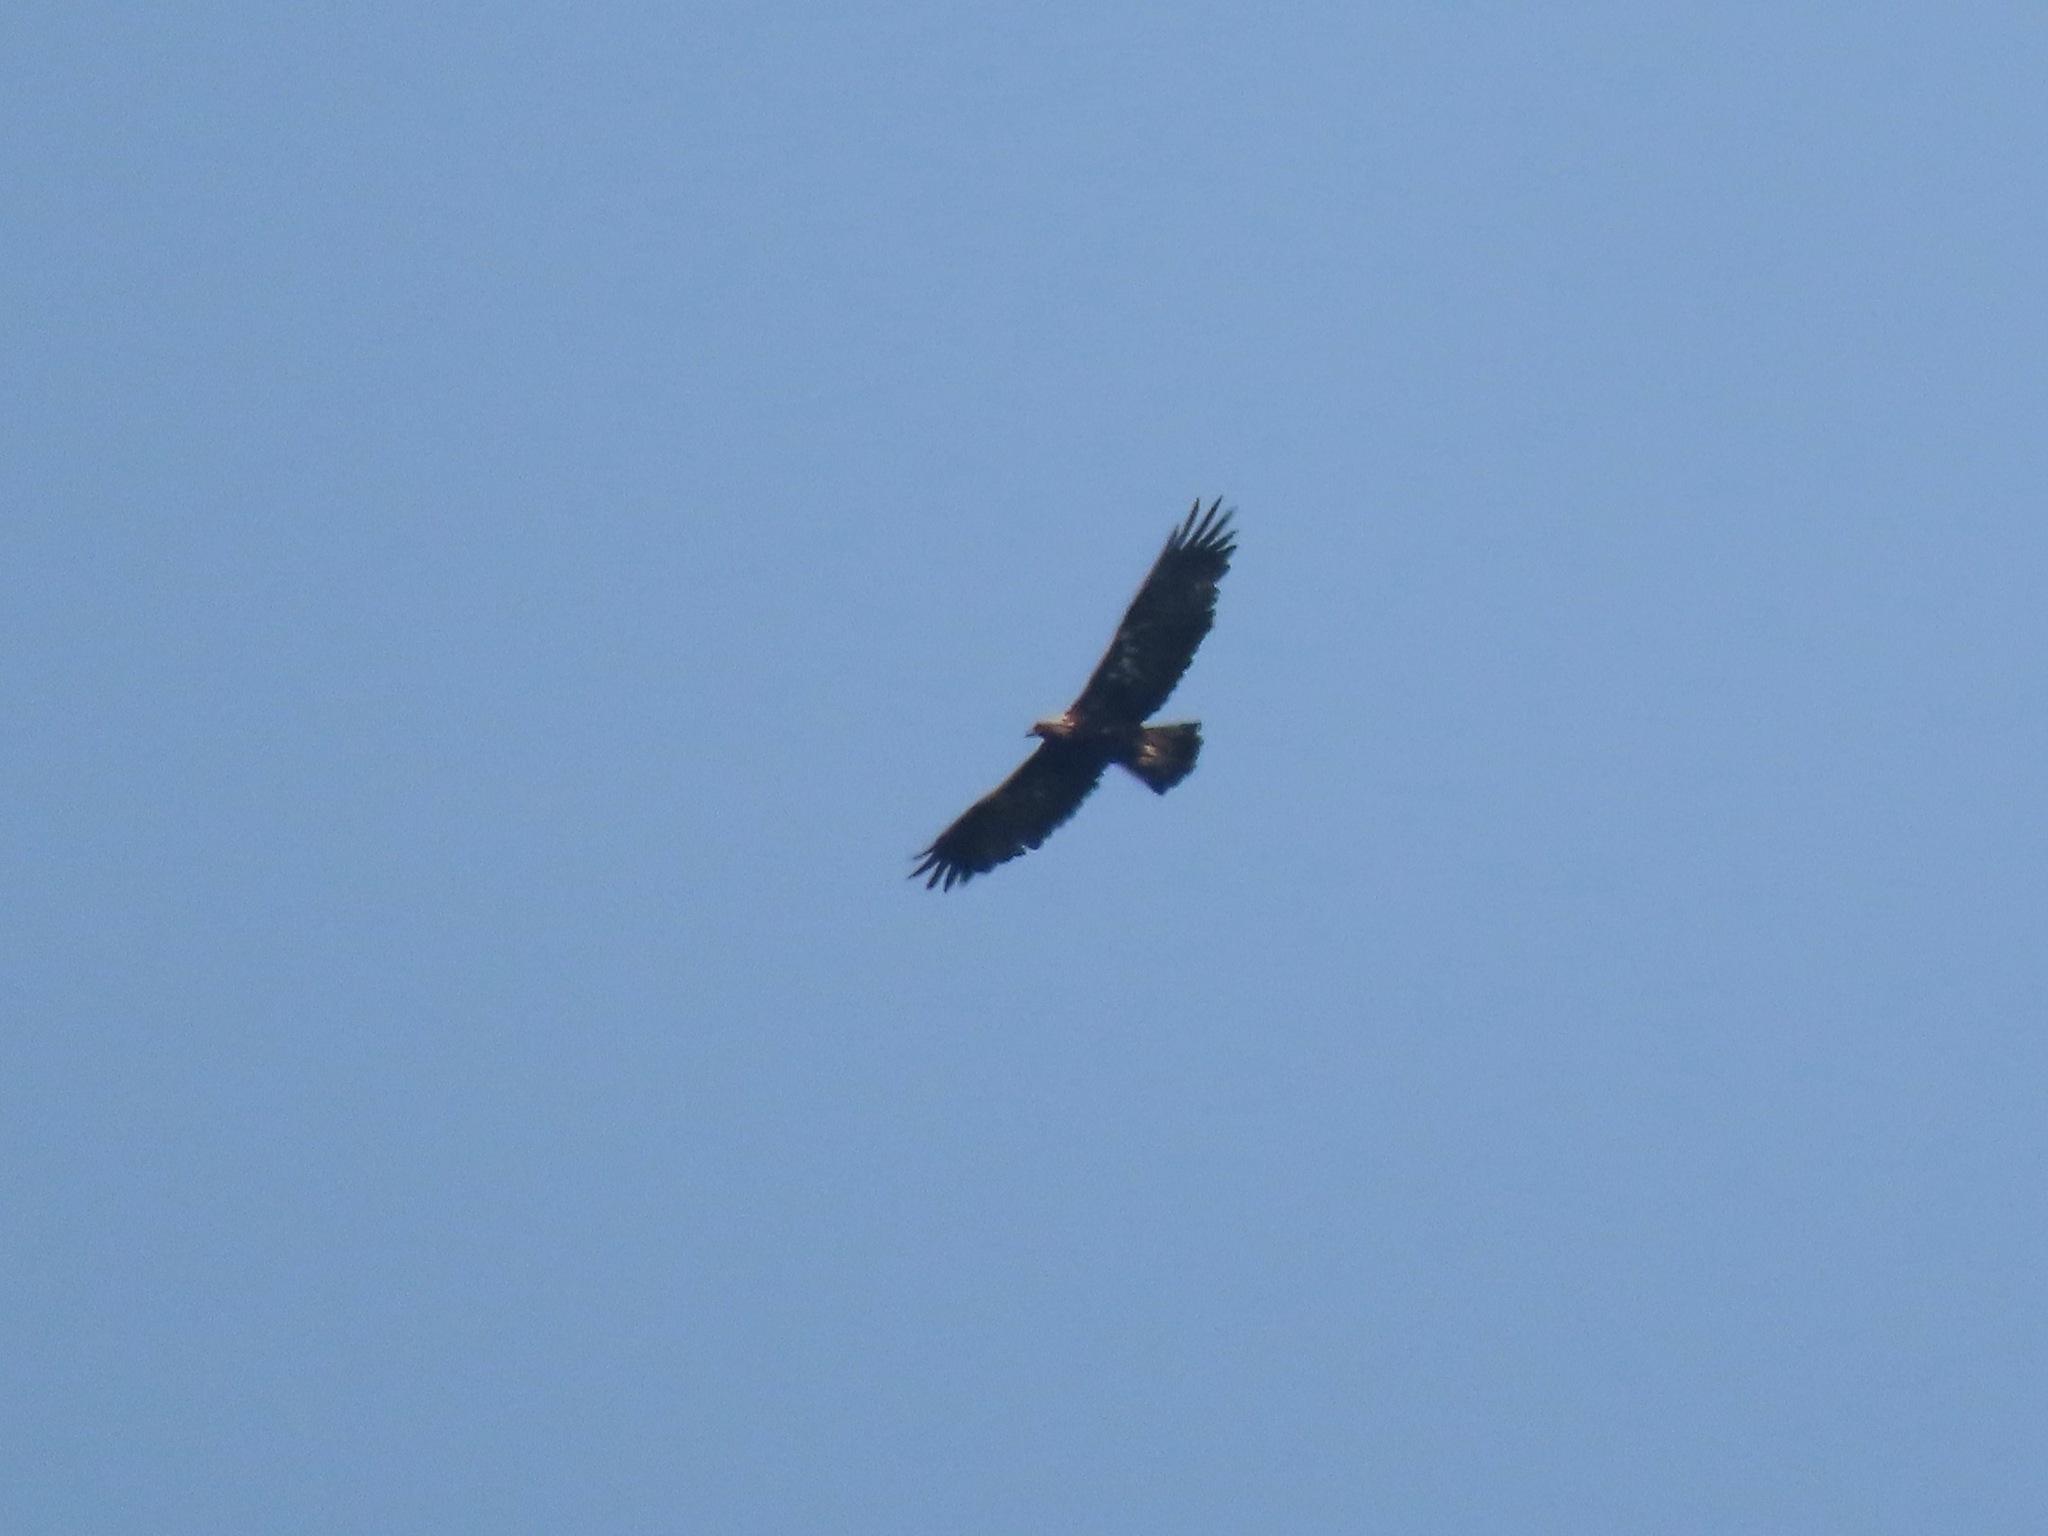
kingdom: Animalia
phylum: Chordata
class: Aves
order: Accipitriformes
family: Accipitridae
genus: Aquila
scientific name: Aquila chrysaetos
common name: Golden eagle
